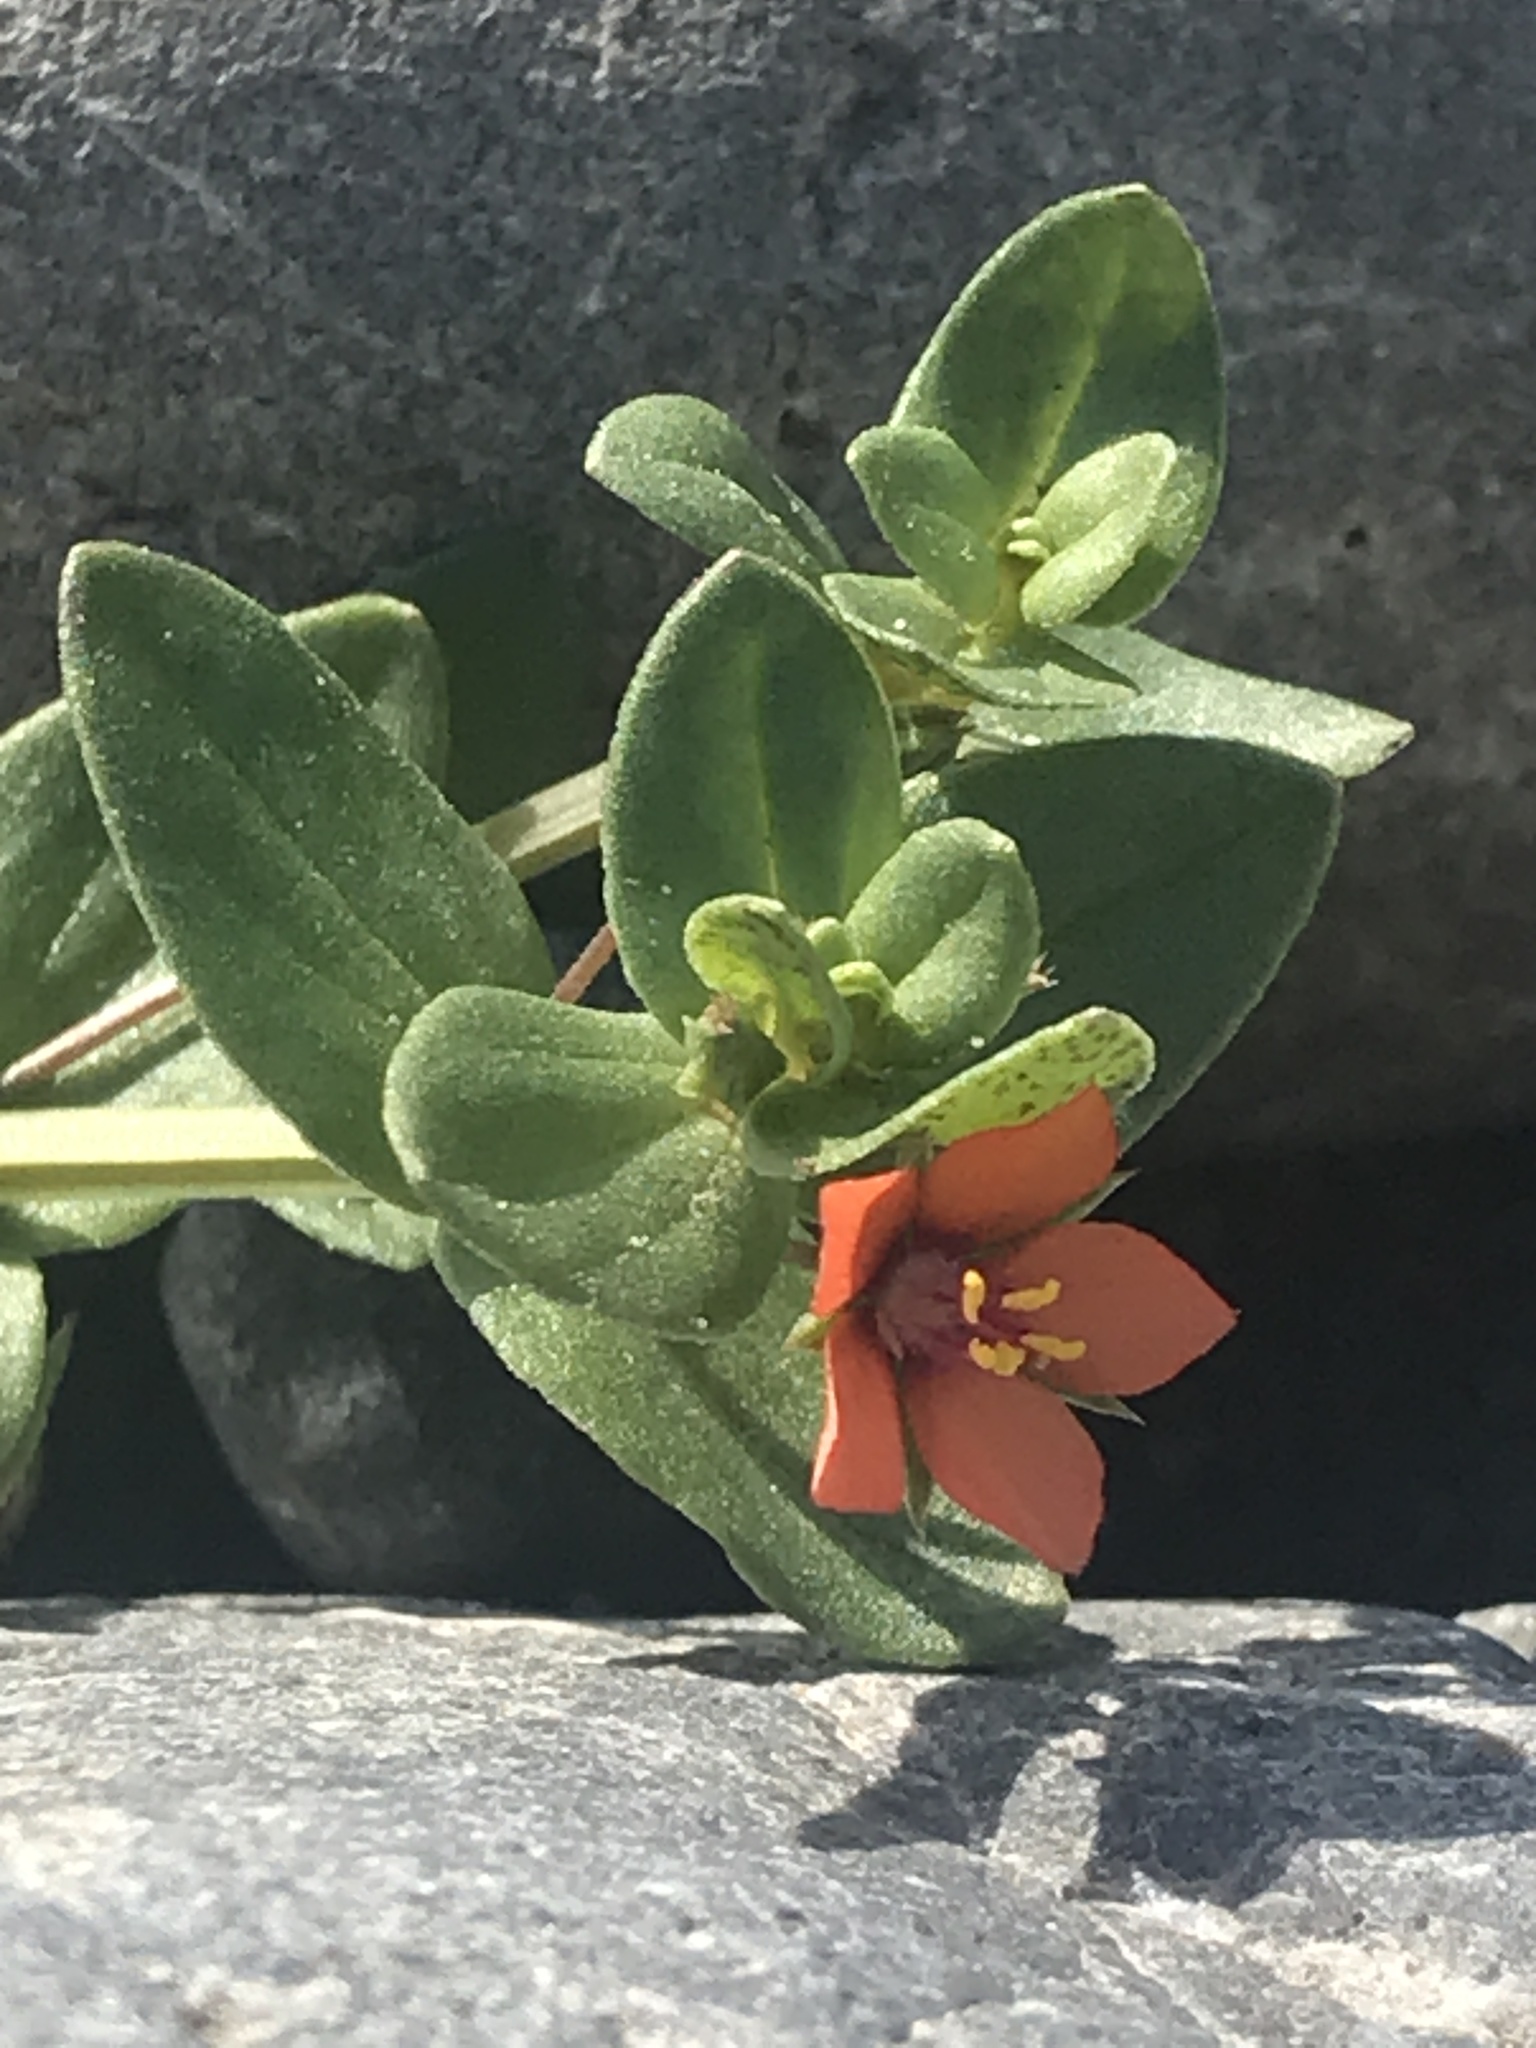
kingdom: Plantae
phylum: Tracheophyta
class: Magnoliopsida
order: Ericales
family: Primulaceae
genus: Lysimachia
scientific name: Lysimachia arvensis
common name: Scarlet pimpernel
